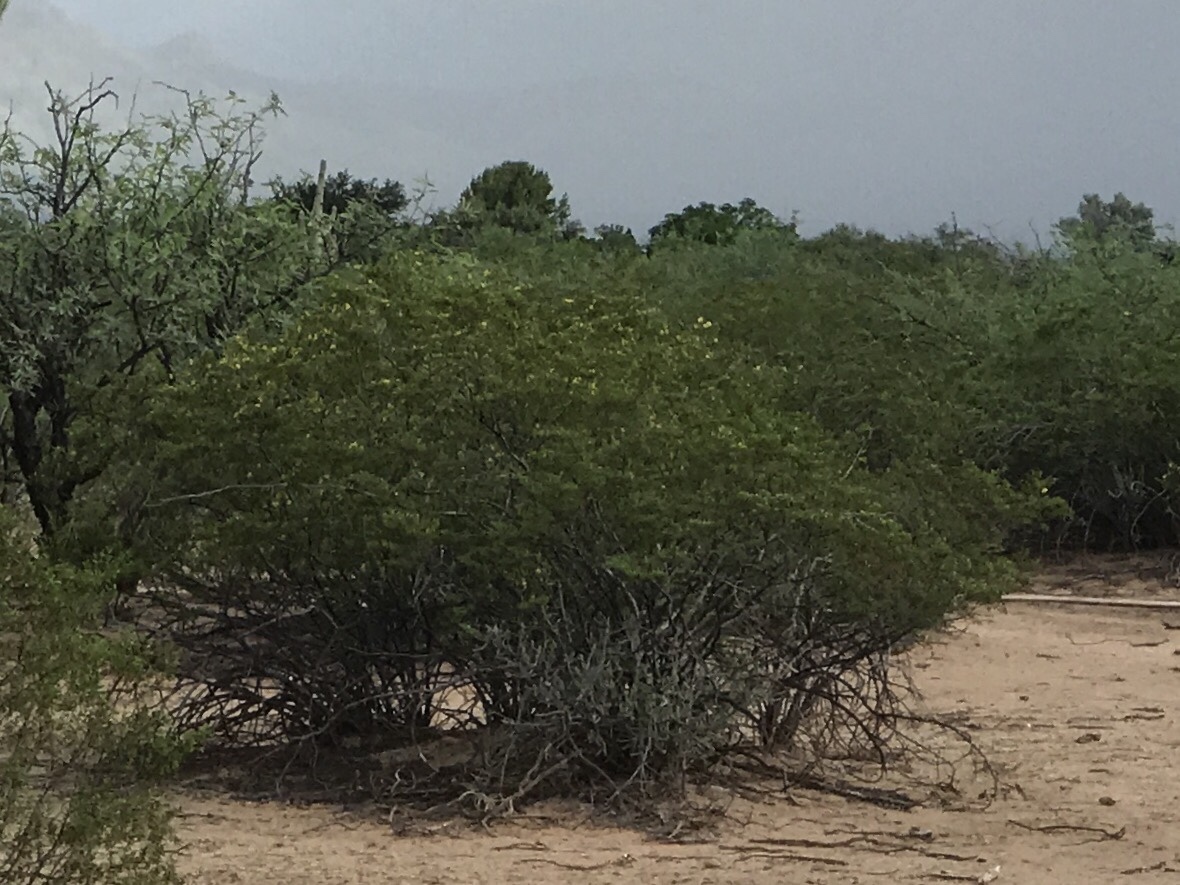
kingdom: Plantae
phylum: Tracheophyta
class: Magnoliopsida
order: Zygophyllales
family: Zygophyllaceae
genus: Larrea
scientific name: Larrea tridentata
